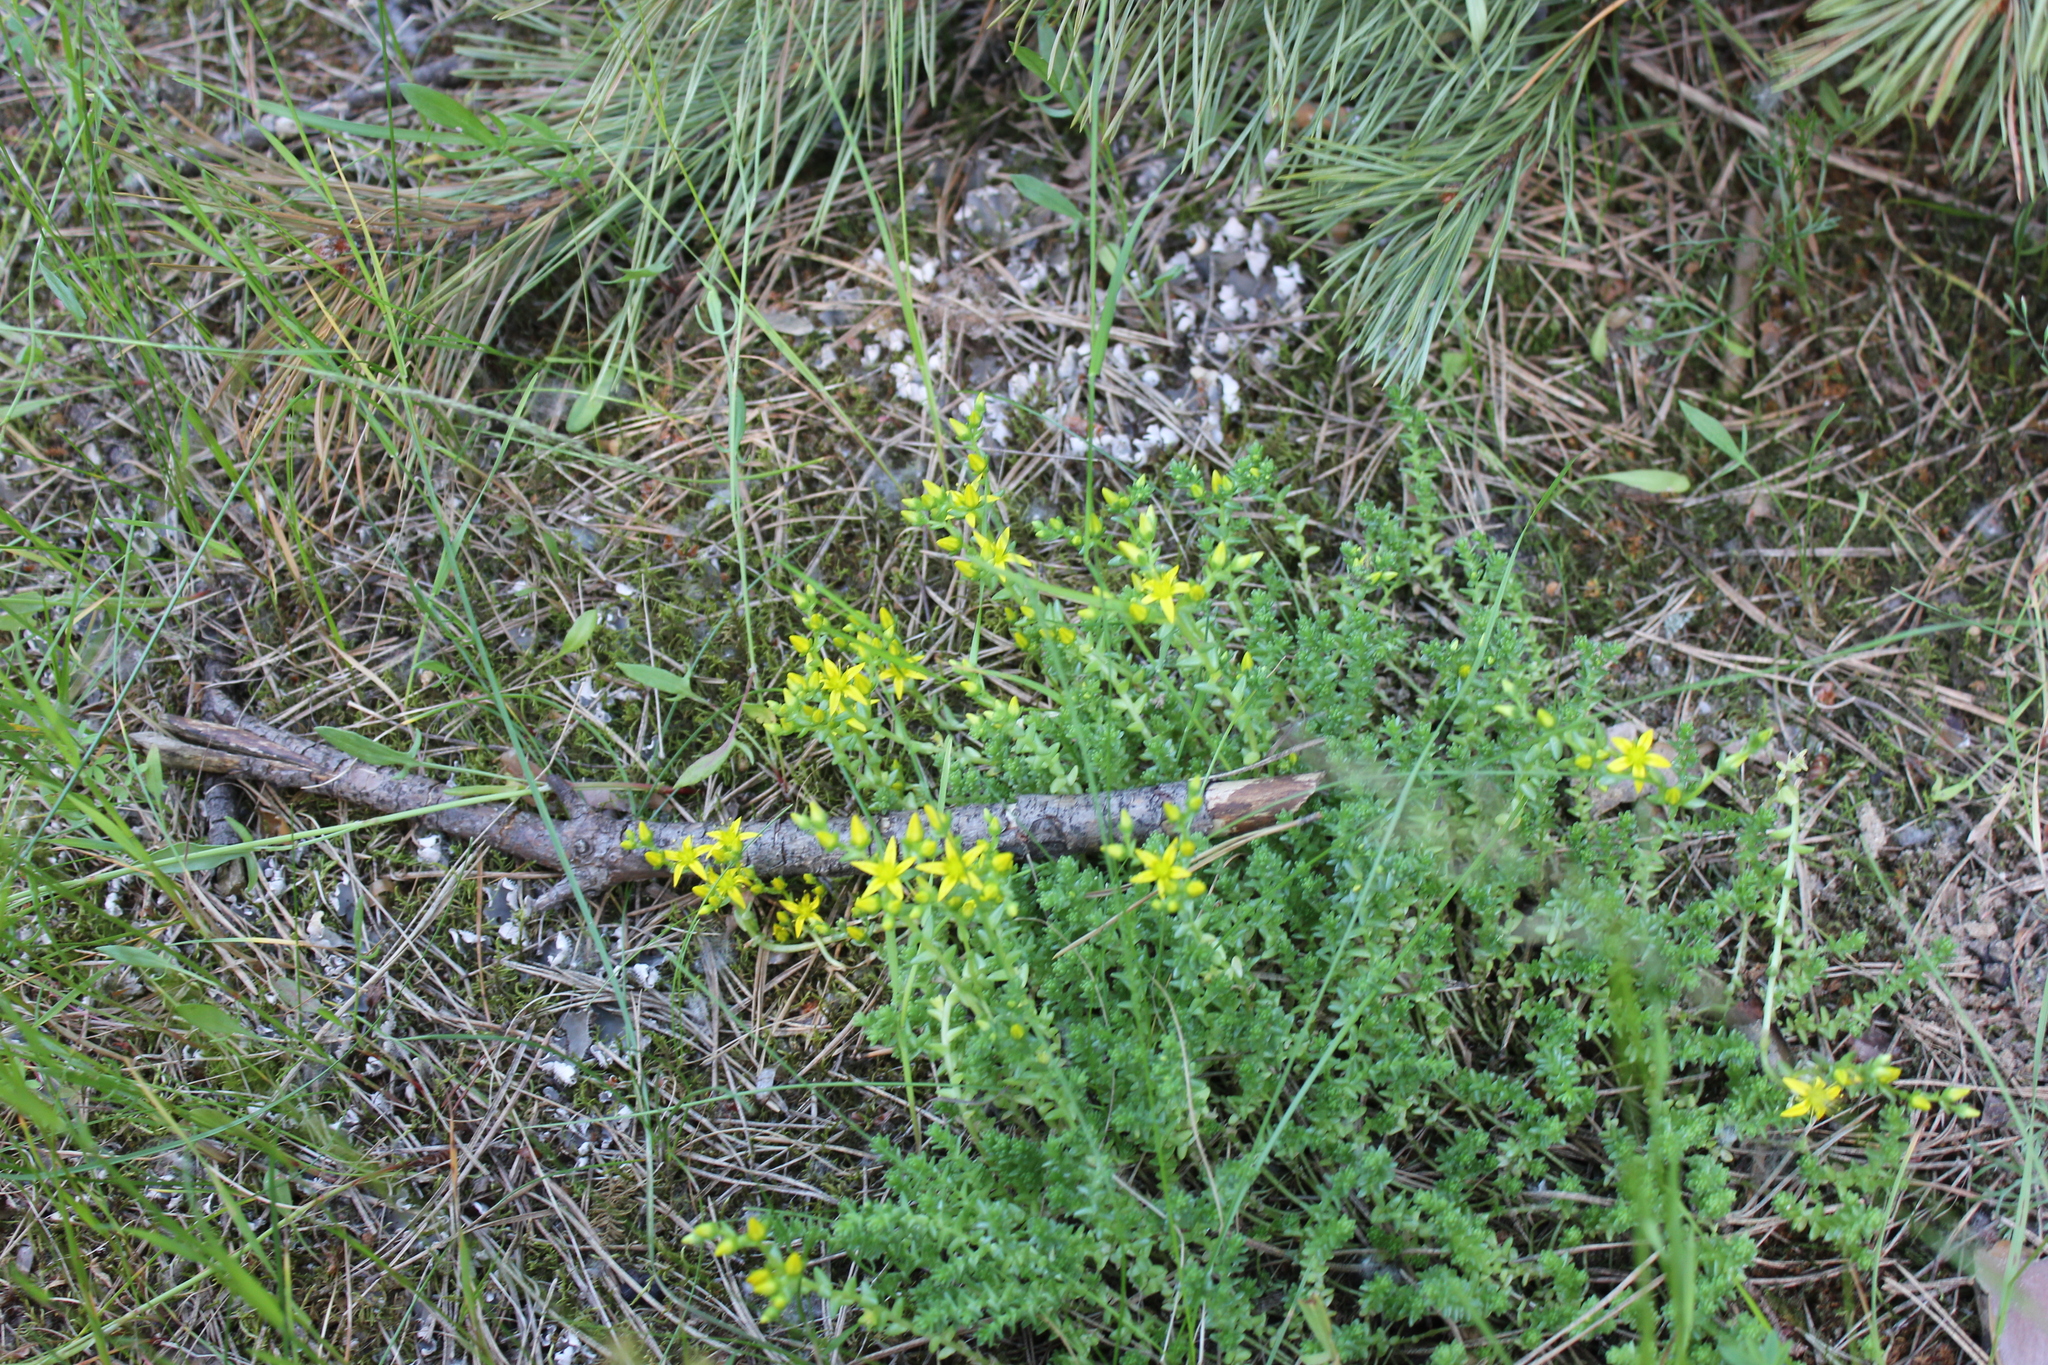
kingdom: Plantae
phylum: Tracheophyta
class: Magnoliopsida
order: Saxifragales
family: Crassulaceae
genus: Sedum
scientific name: Sedum acre
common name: Biting stonecrop
